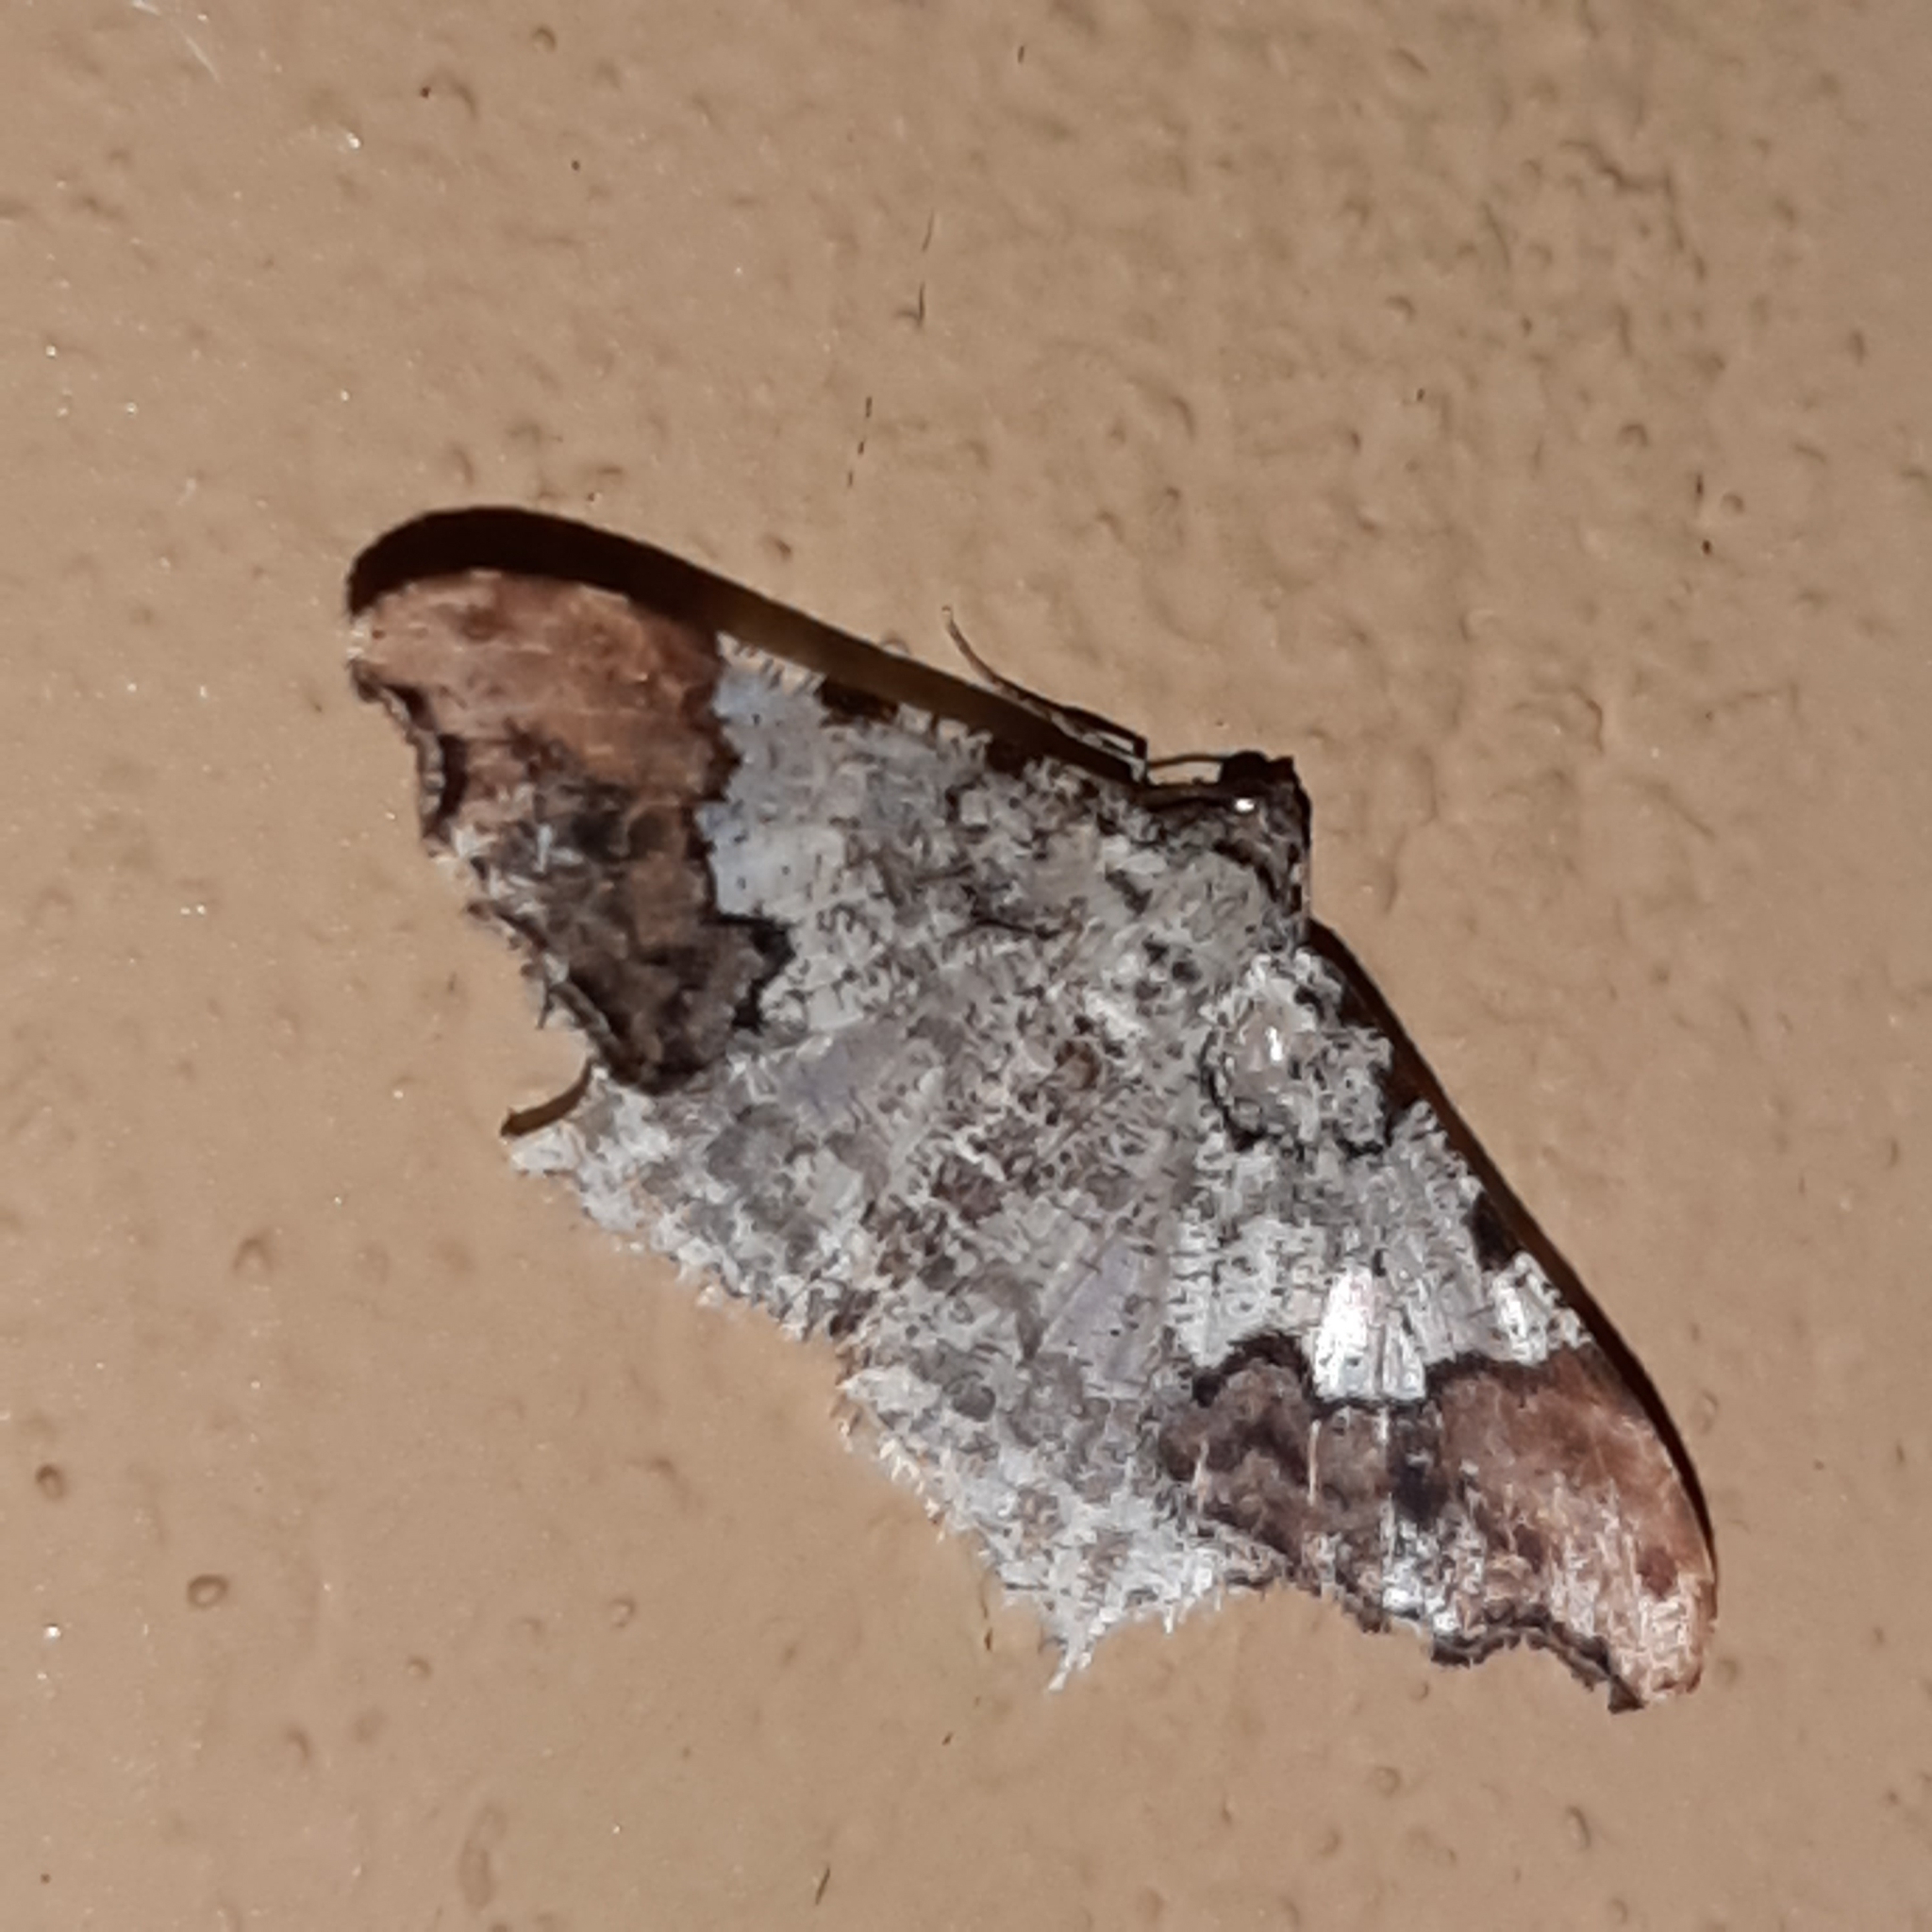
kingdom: Animalia
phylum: Arthropoda
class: Insecta
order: Lepidoptera
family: Geometridae
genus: Semiothisa
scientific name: Semiothisa
